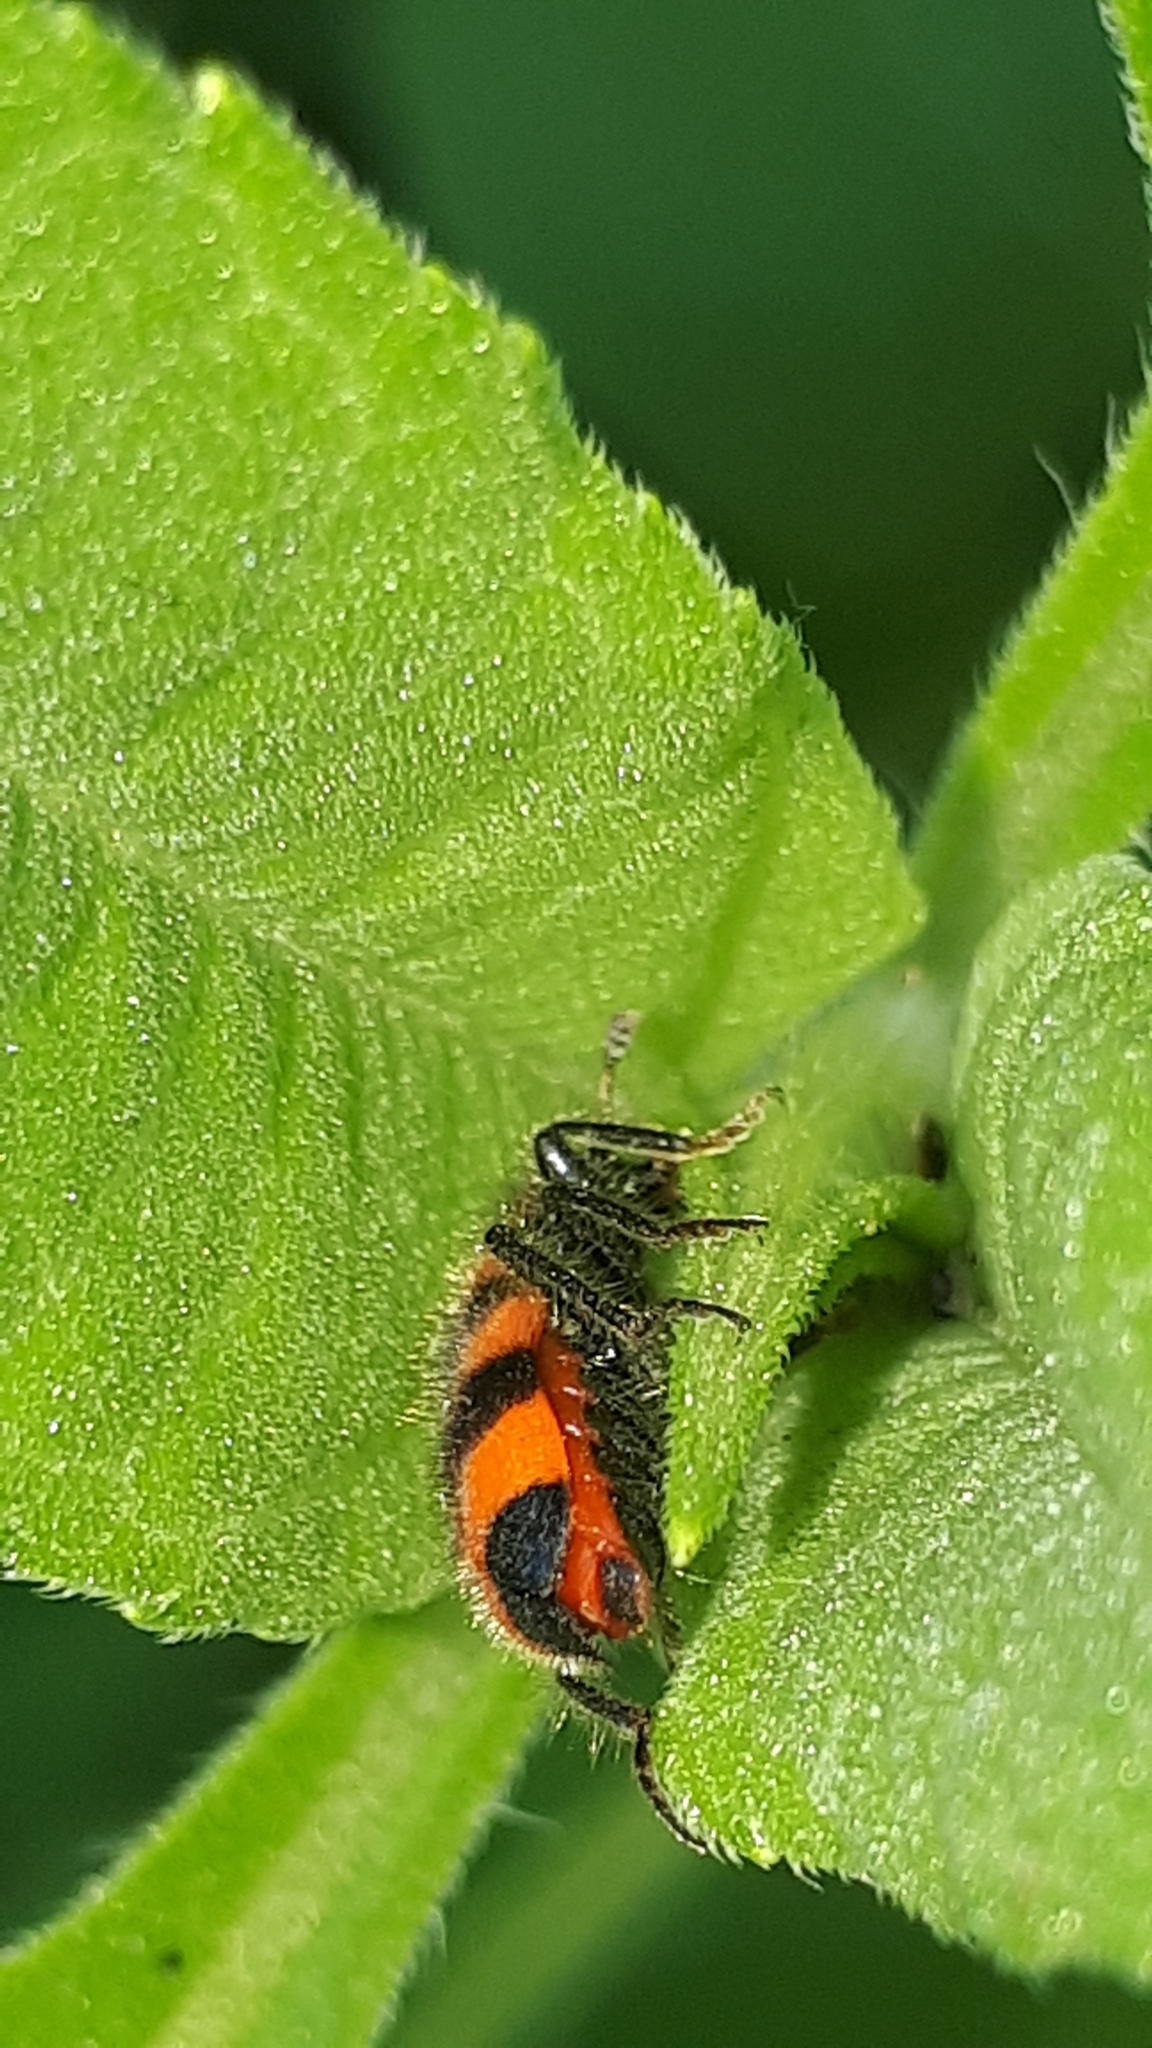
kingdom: Animalia
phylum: Arthropoda
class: Insecta
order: Coleoptera
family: Cleridae
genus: Trichodes
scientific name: Trichodes apiarius
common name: Bee-eating beetle
